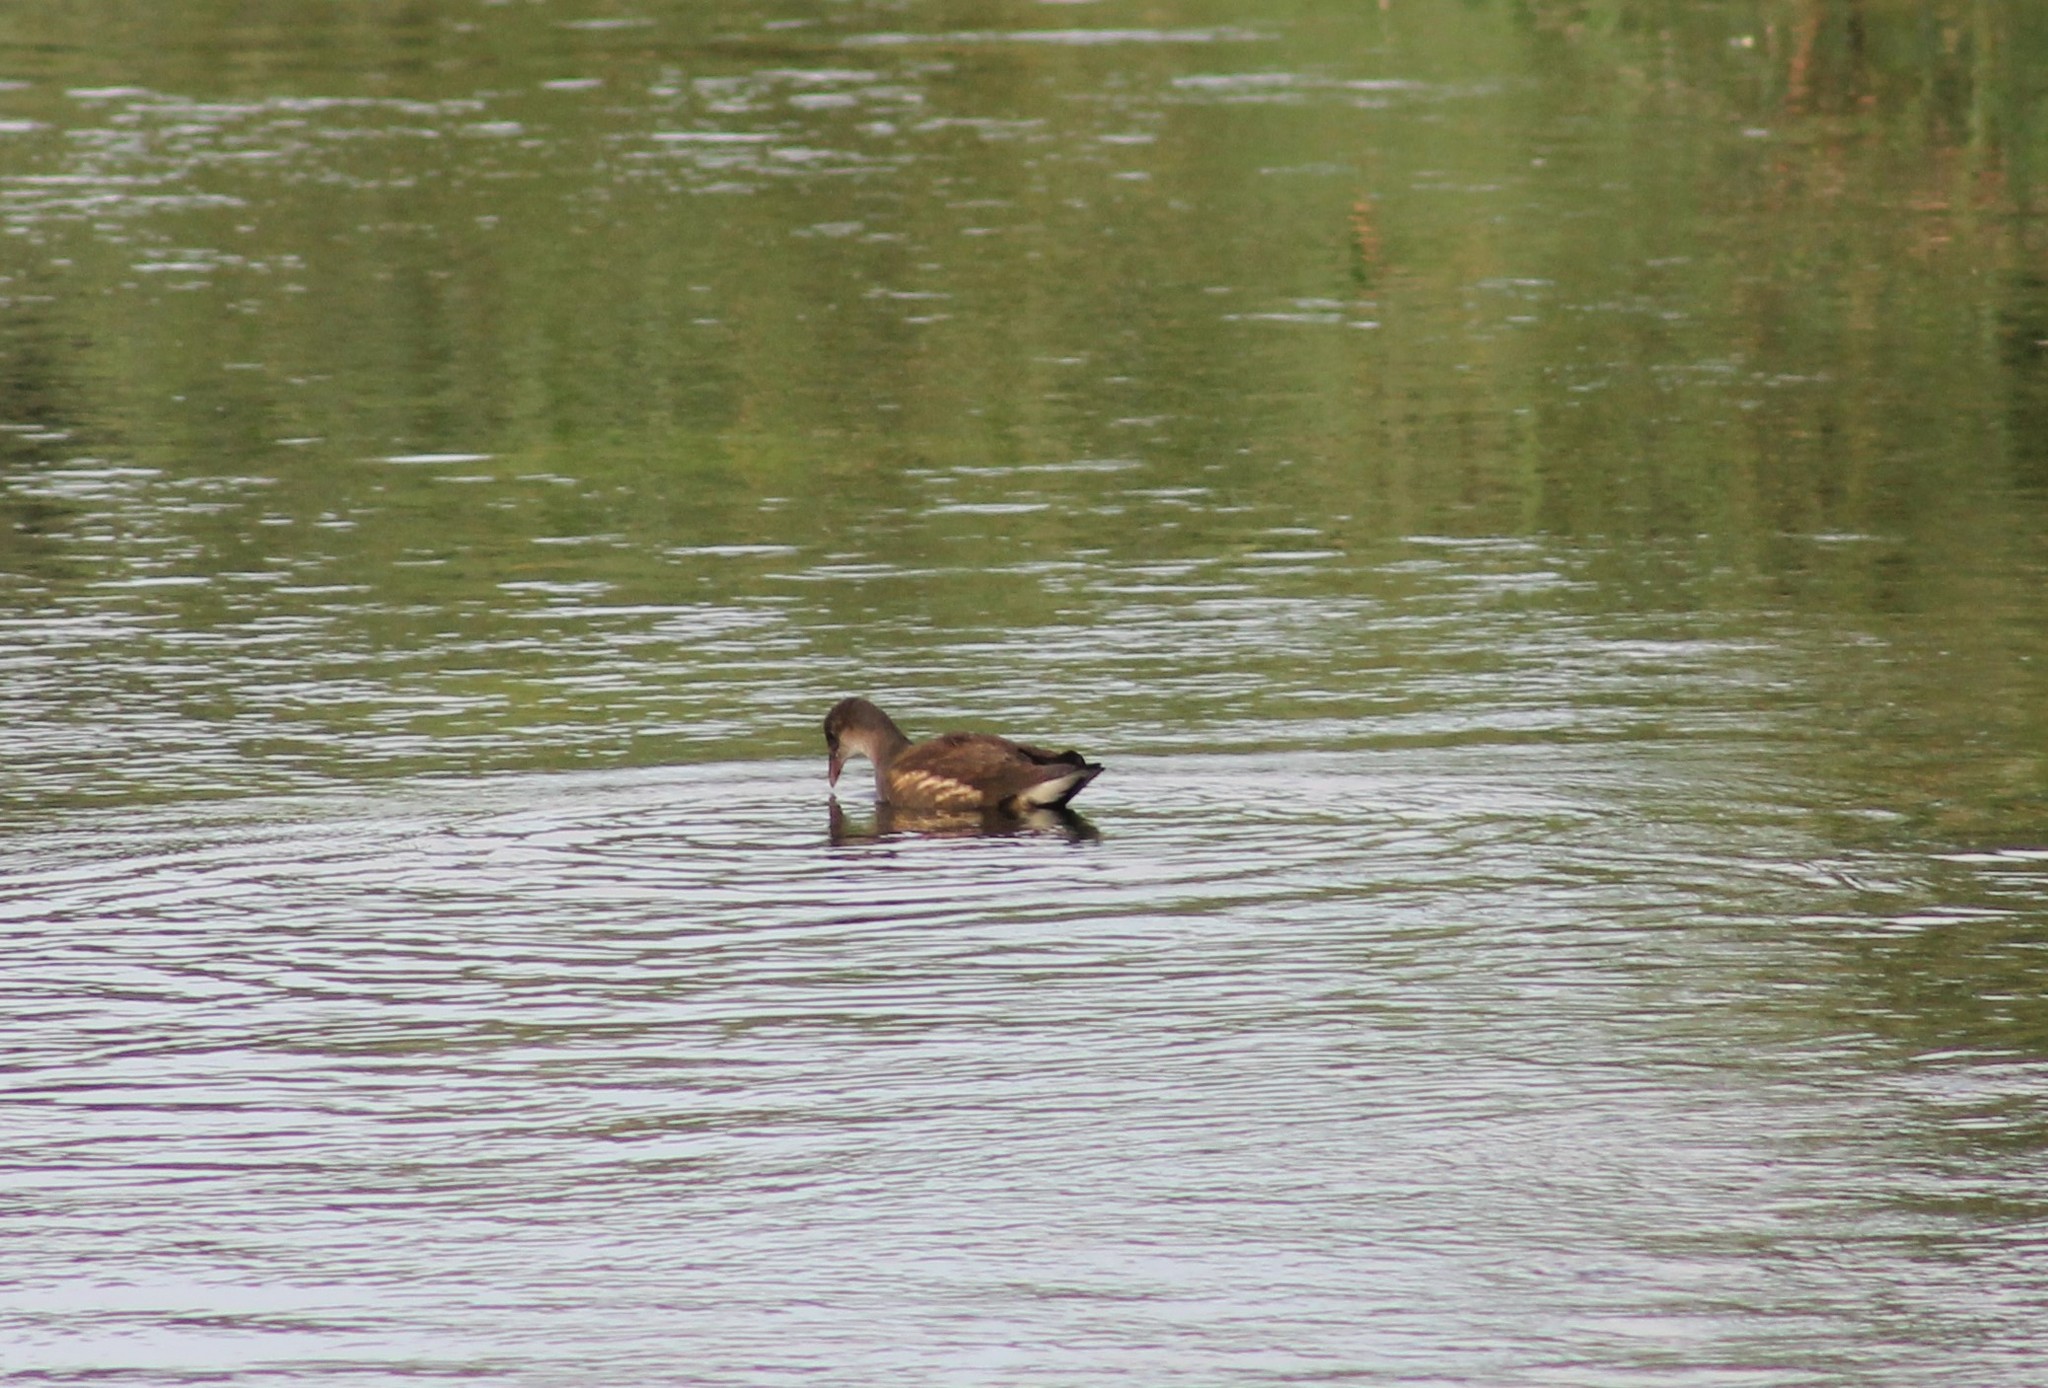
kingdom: Animalia
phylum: Chordata
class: Aves
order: Gruiformes
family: Rallidae
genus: Gallinula
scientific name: Gallinula chloropus
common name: Common moorhen
